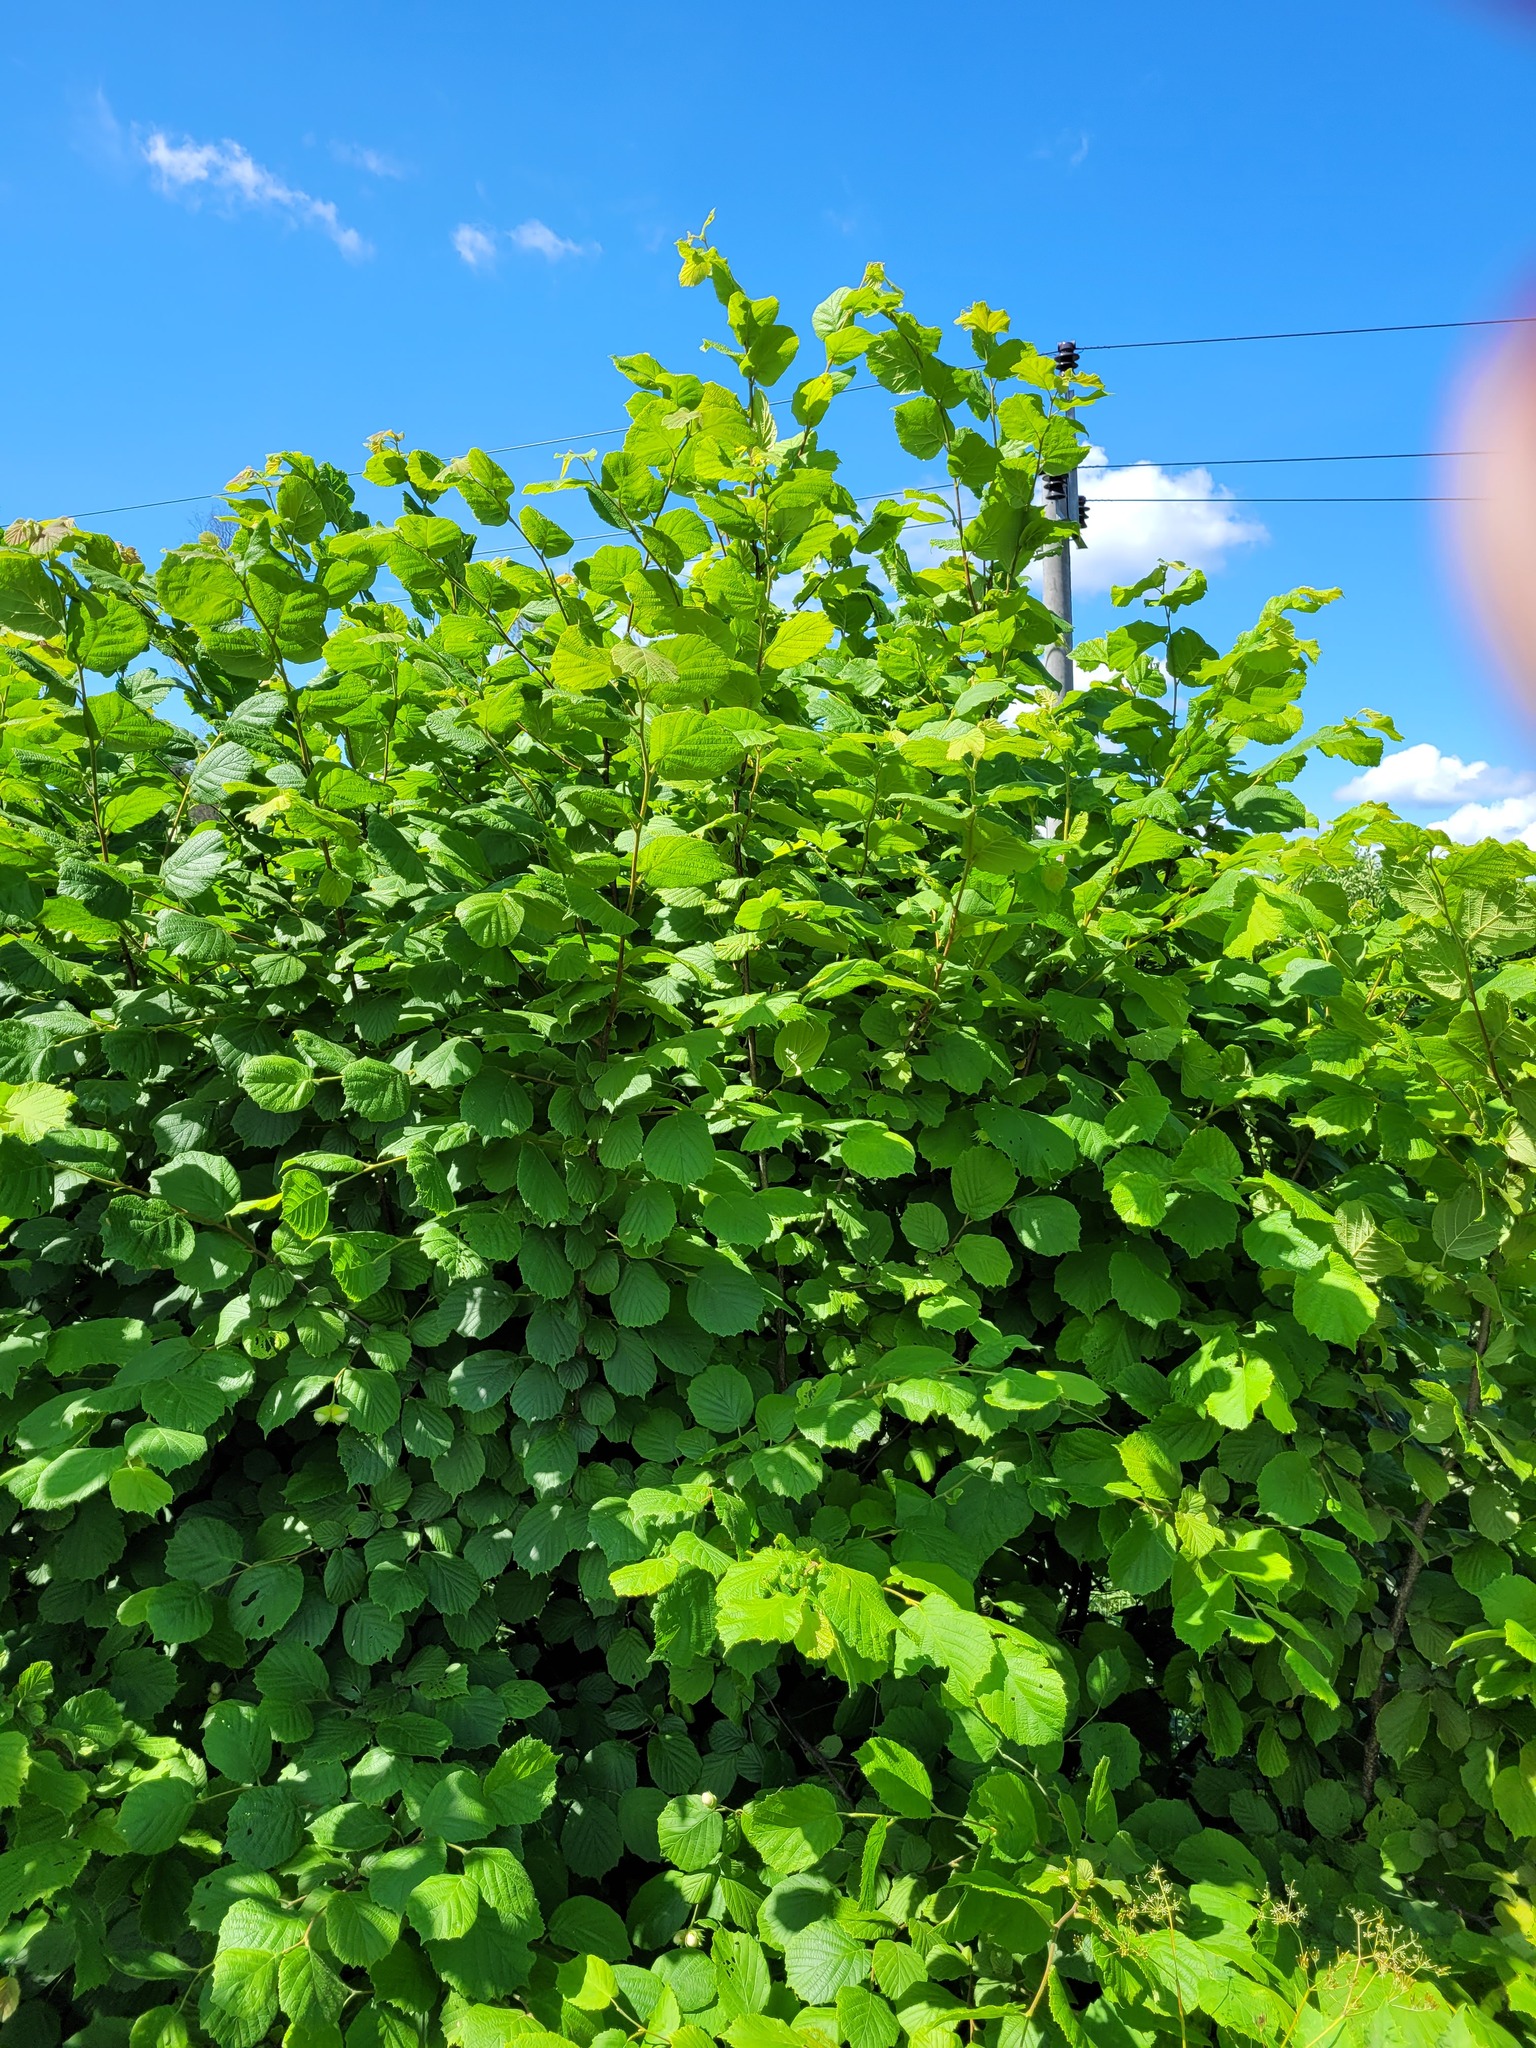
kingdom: Plantae
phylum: Tracheophyta
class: Magnoliopsida
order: Fagales
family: Betulaceae
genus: Corylus
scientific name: Corylus avellana
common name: European hazel
